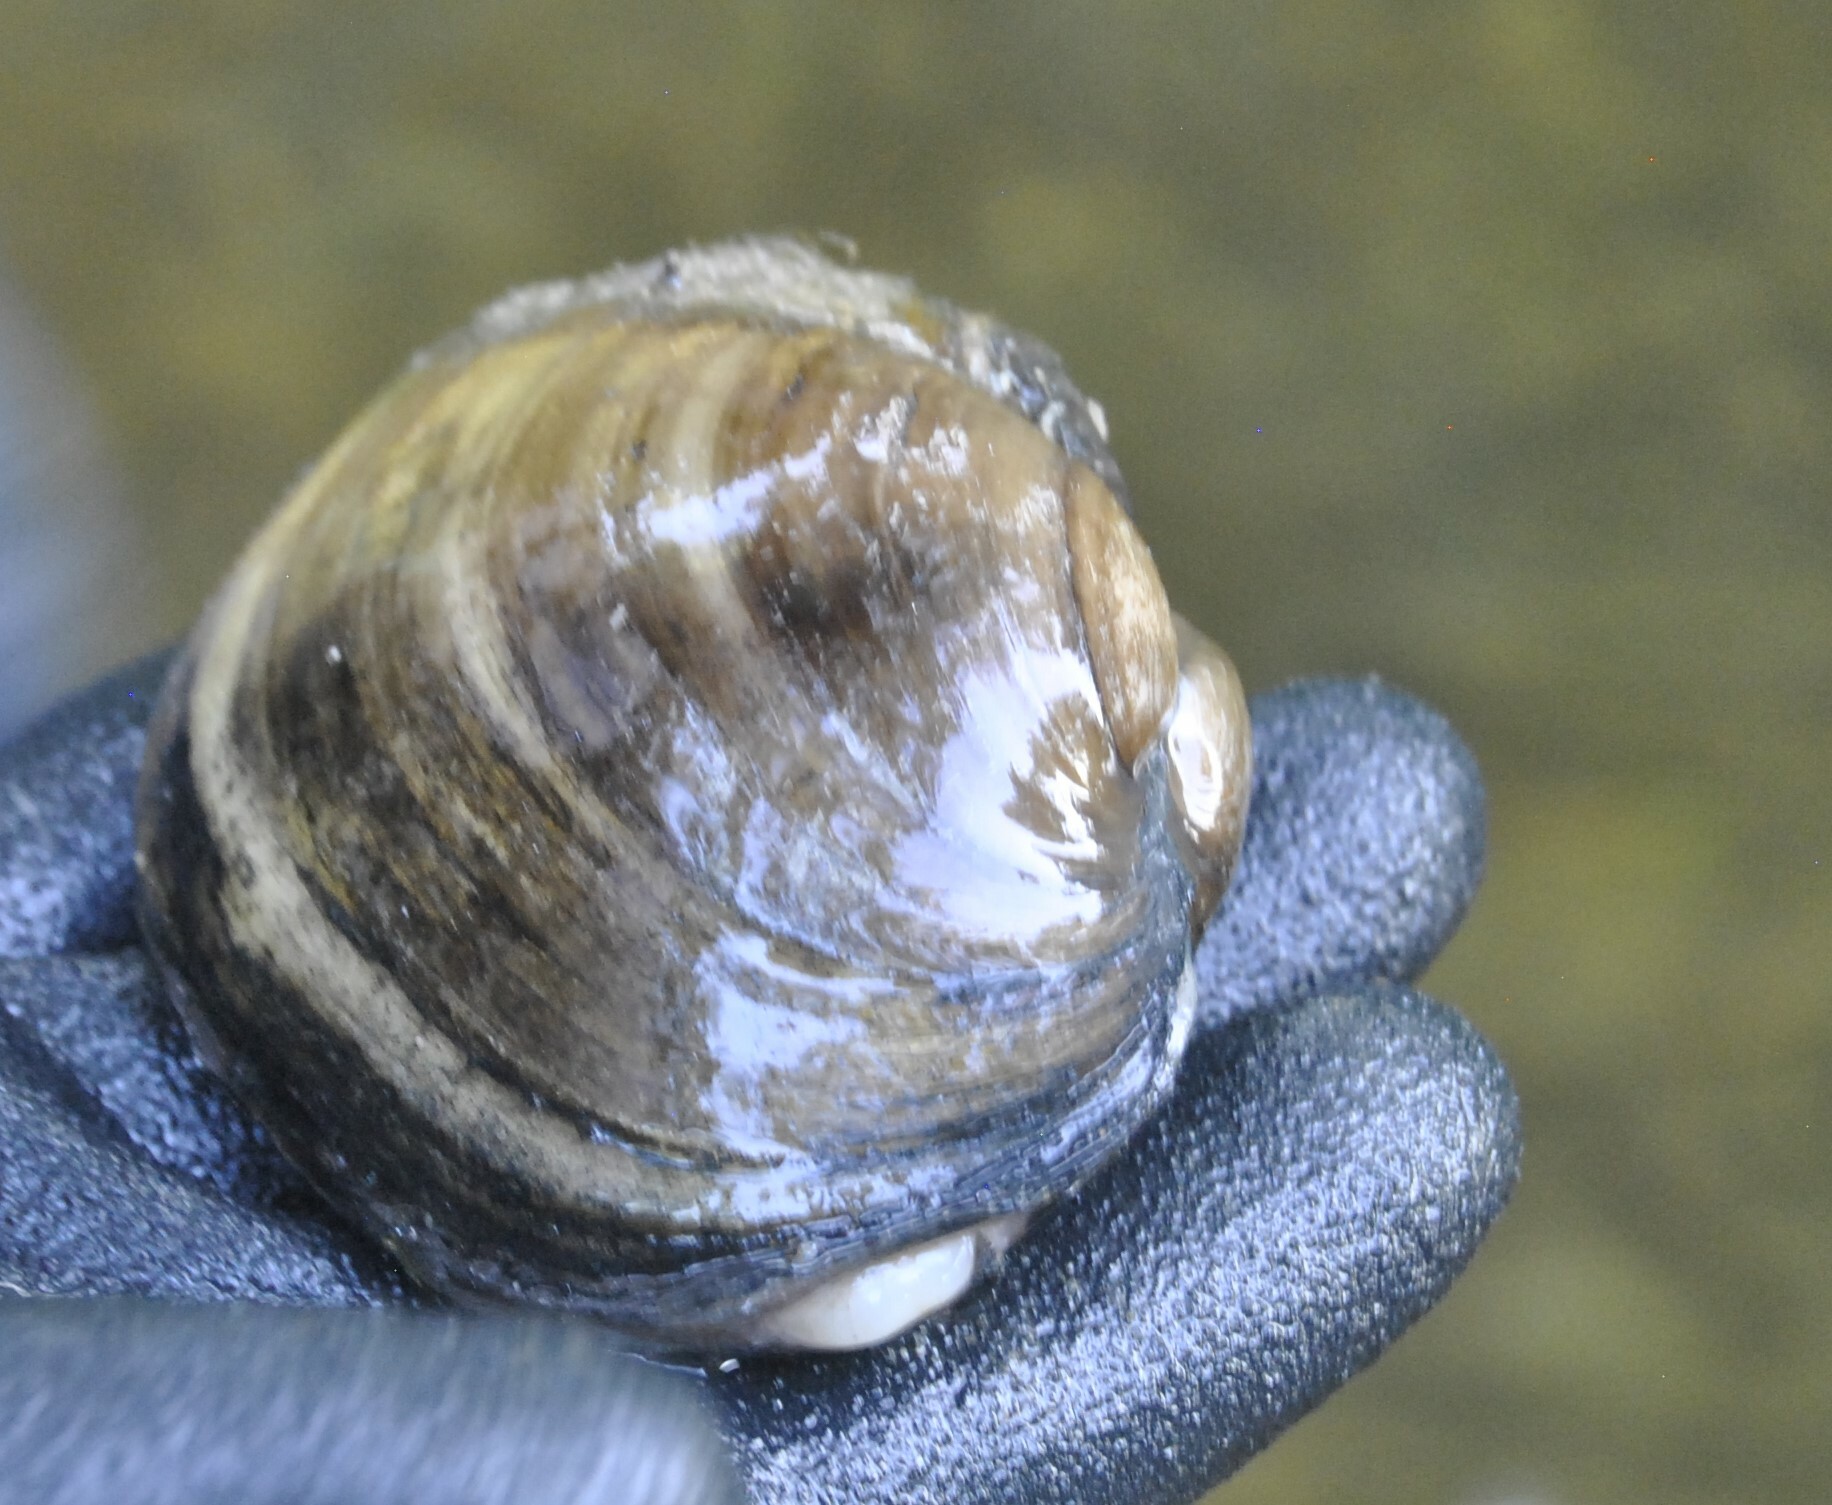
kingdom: Animalia
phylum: Mollusca
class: Bivalvia
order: Unionida
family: Unionidae
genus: Lampsilis
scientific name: Lampsilis cardium
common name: Plain pocketbook
